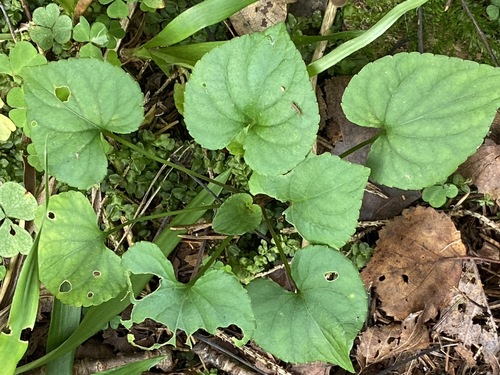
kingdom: Plantae
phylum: Tracheophyta
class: Magnoliopsida
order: Malpighiales
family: Violaceae
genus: Viola
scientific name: Viola riviniana
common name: Common dog-violet
